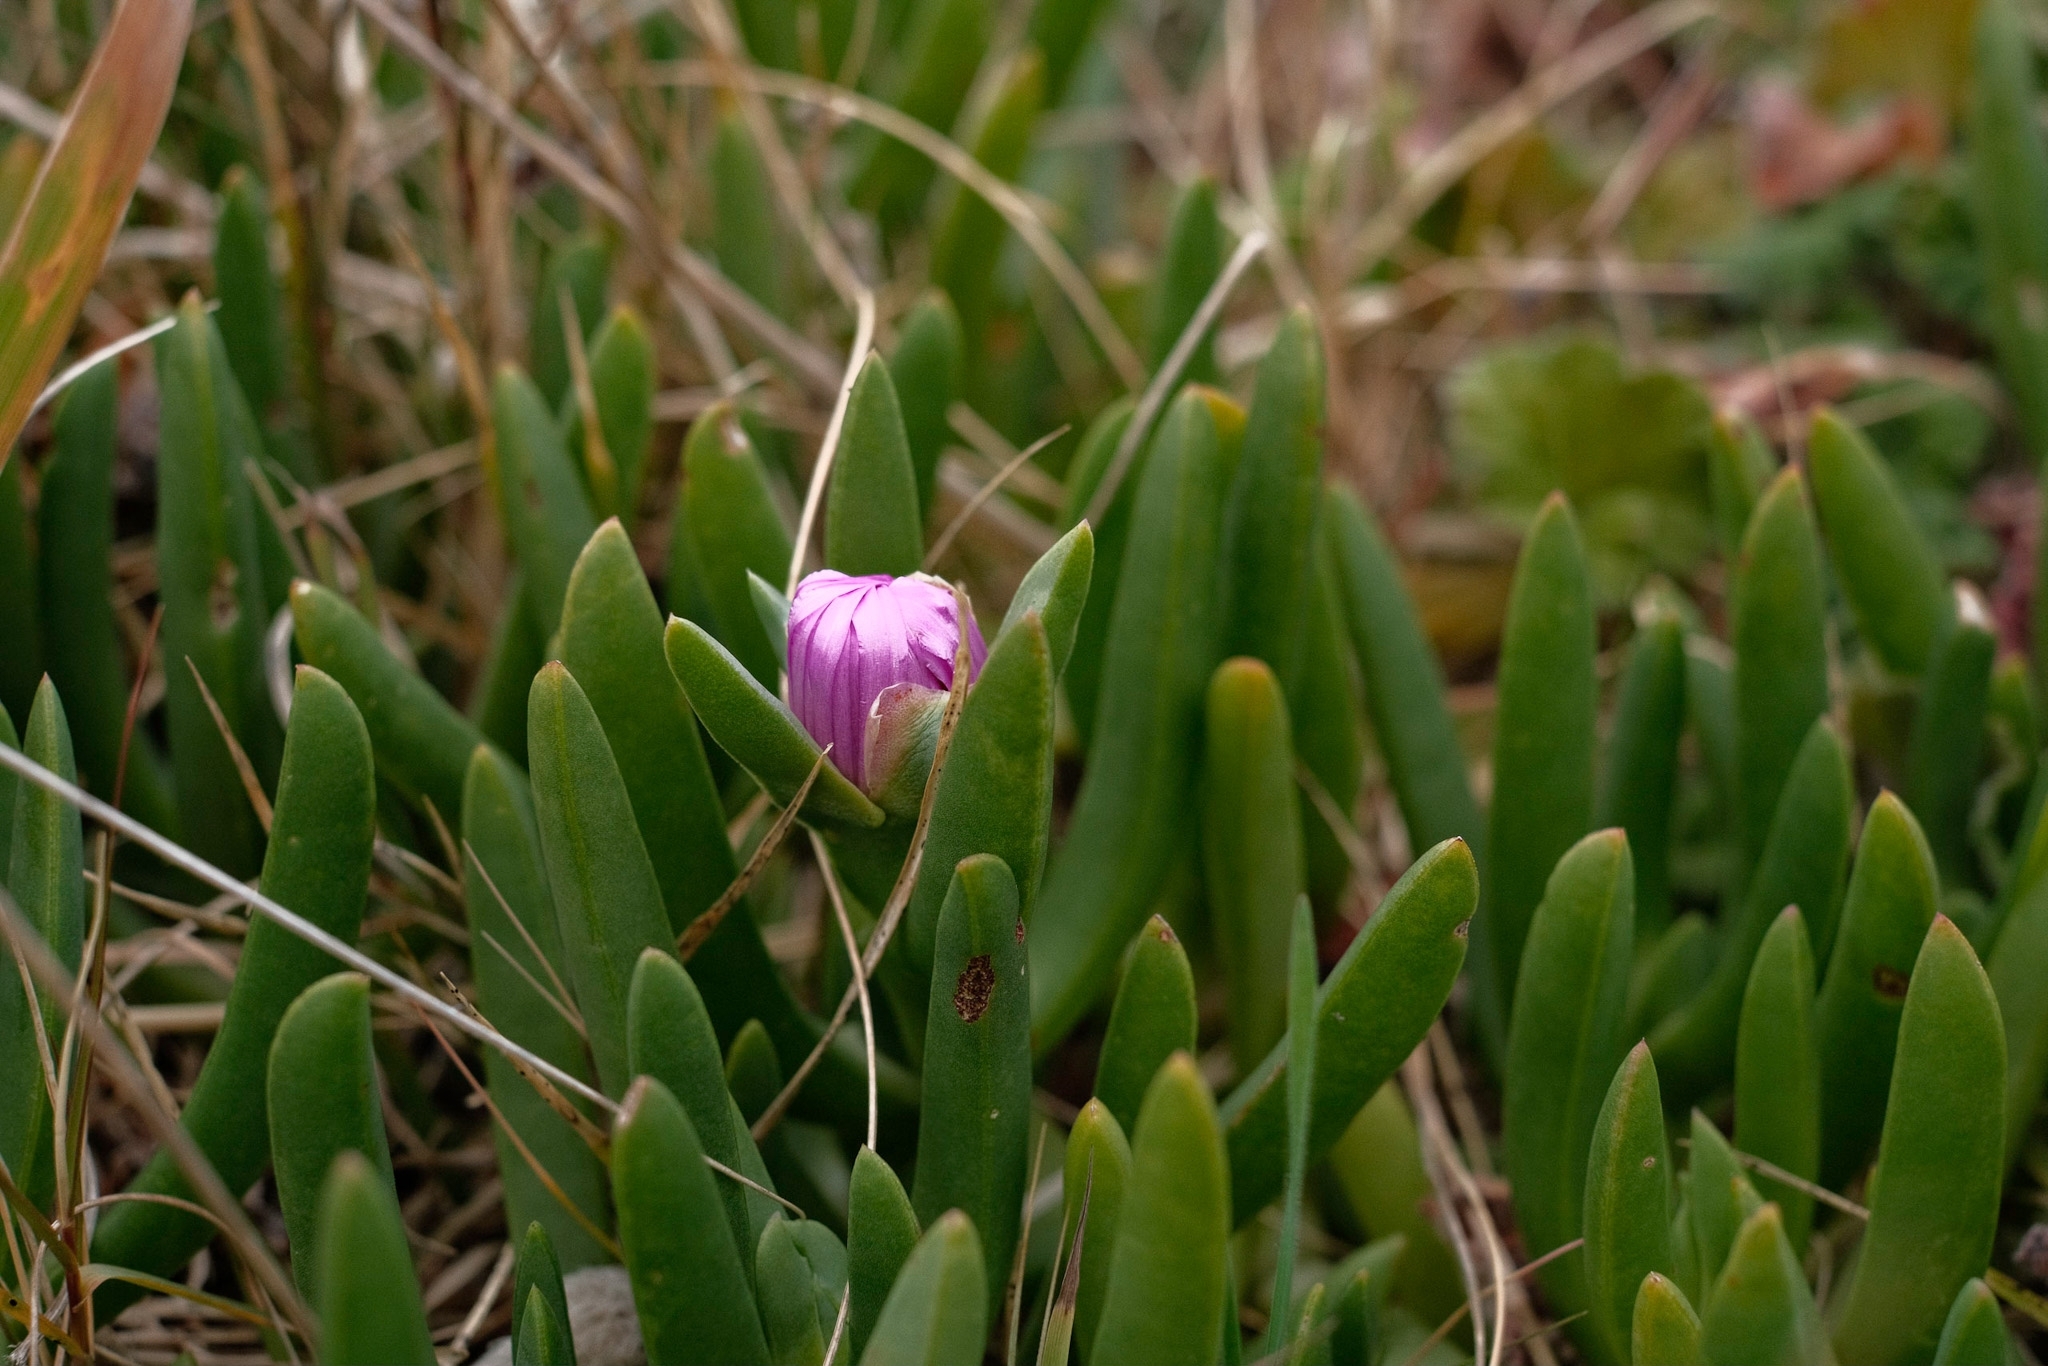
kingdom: Plantae
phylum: Tracheophyta
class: Magnoliopsida
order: Caryophyllales
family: Aizoaceae
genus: Carpobrotus
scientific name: Carpobrotus rossii
